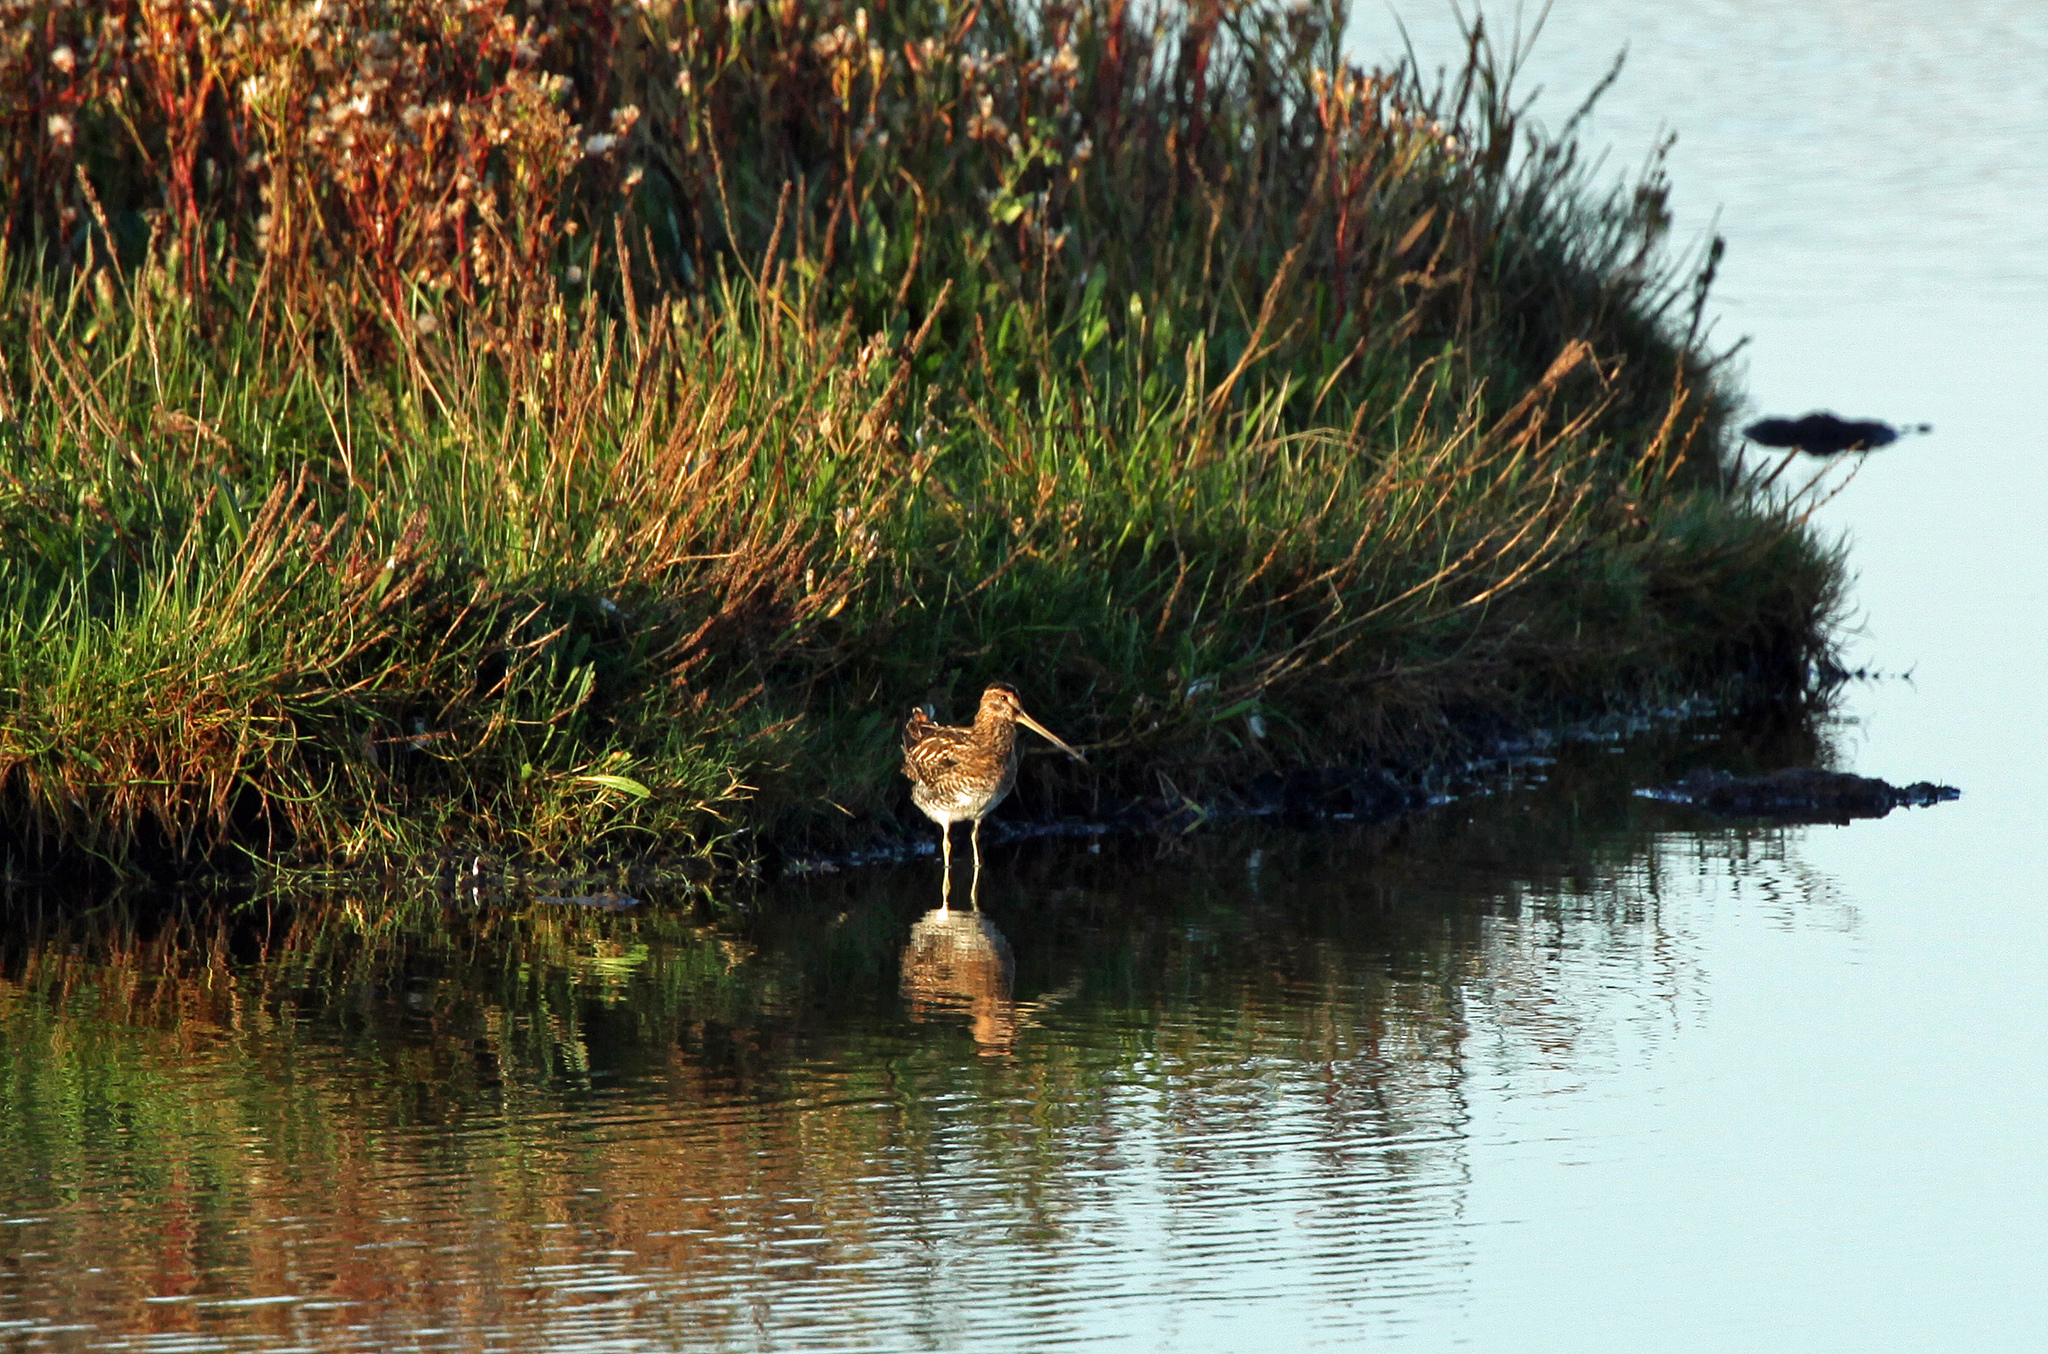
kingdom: Animalia
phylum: Chordata
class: Aves
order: Charadriiformes
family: Scolopacidae
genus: Gallinago
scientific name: Gallinago gallinago
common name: Common snipe
